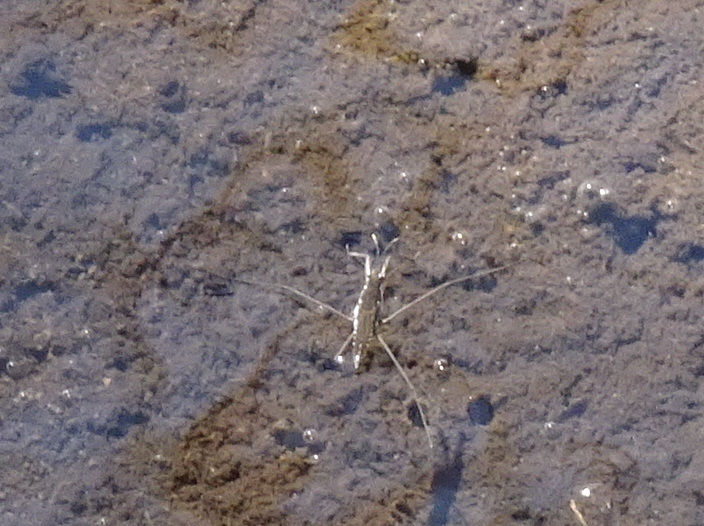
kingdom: Animalia
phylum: Arthropoda
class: Insecta
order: Hemiptera
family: Gerridae
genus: Aquarius
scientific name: Aquarius remigis
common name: Common water strider
